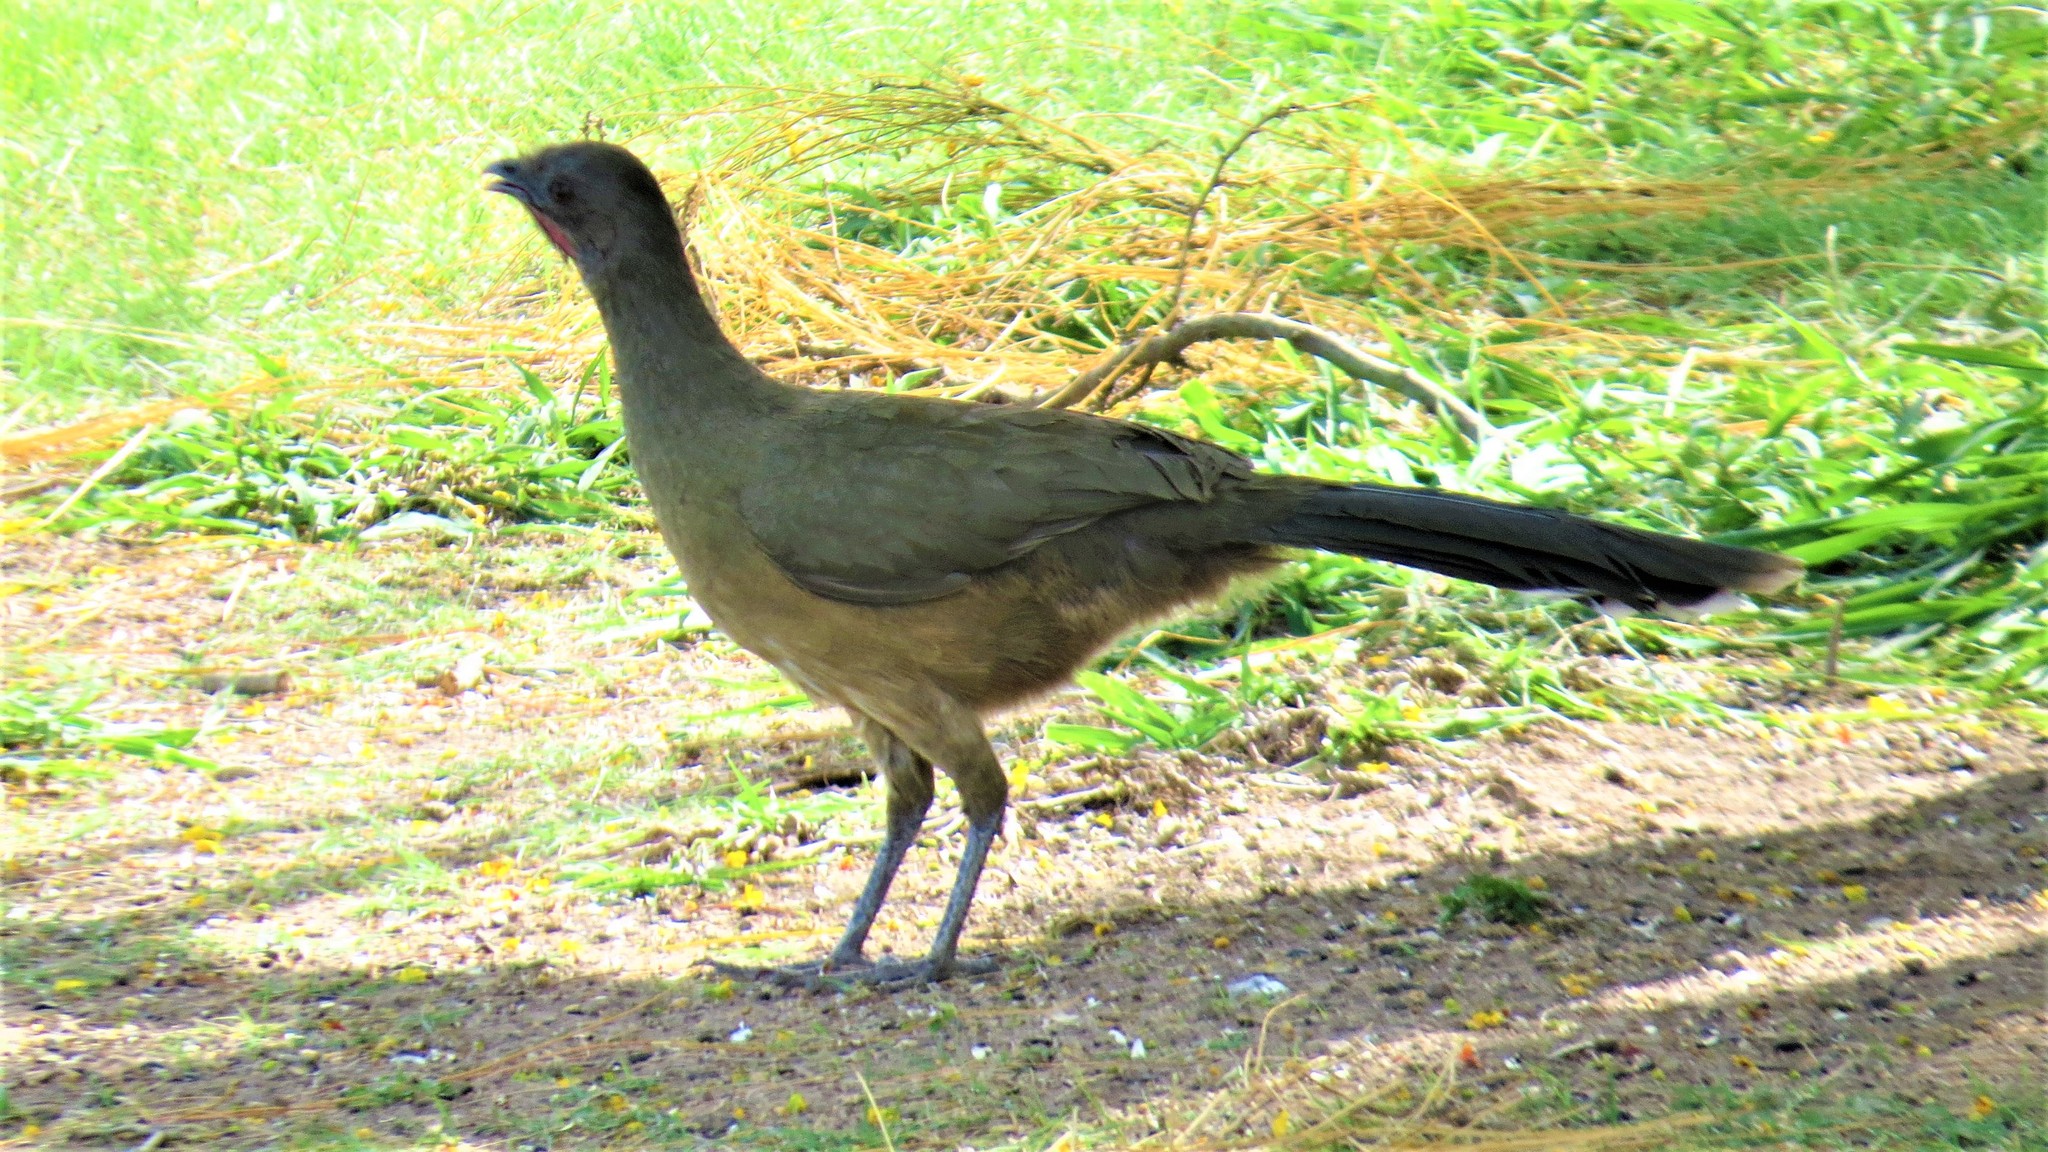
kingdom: Animalia
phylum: Chordata
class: Aves
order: Galliformes
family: Cracidae
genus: Ortalis
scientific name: Ortalis vetula
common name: Plain chachalaca
